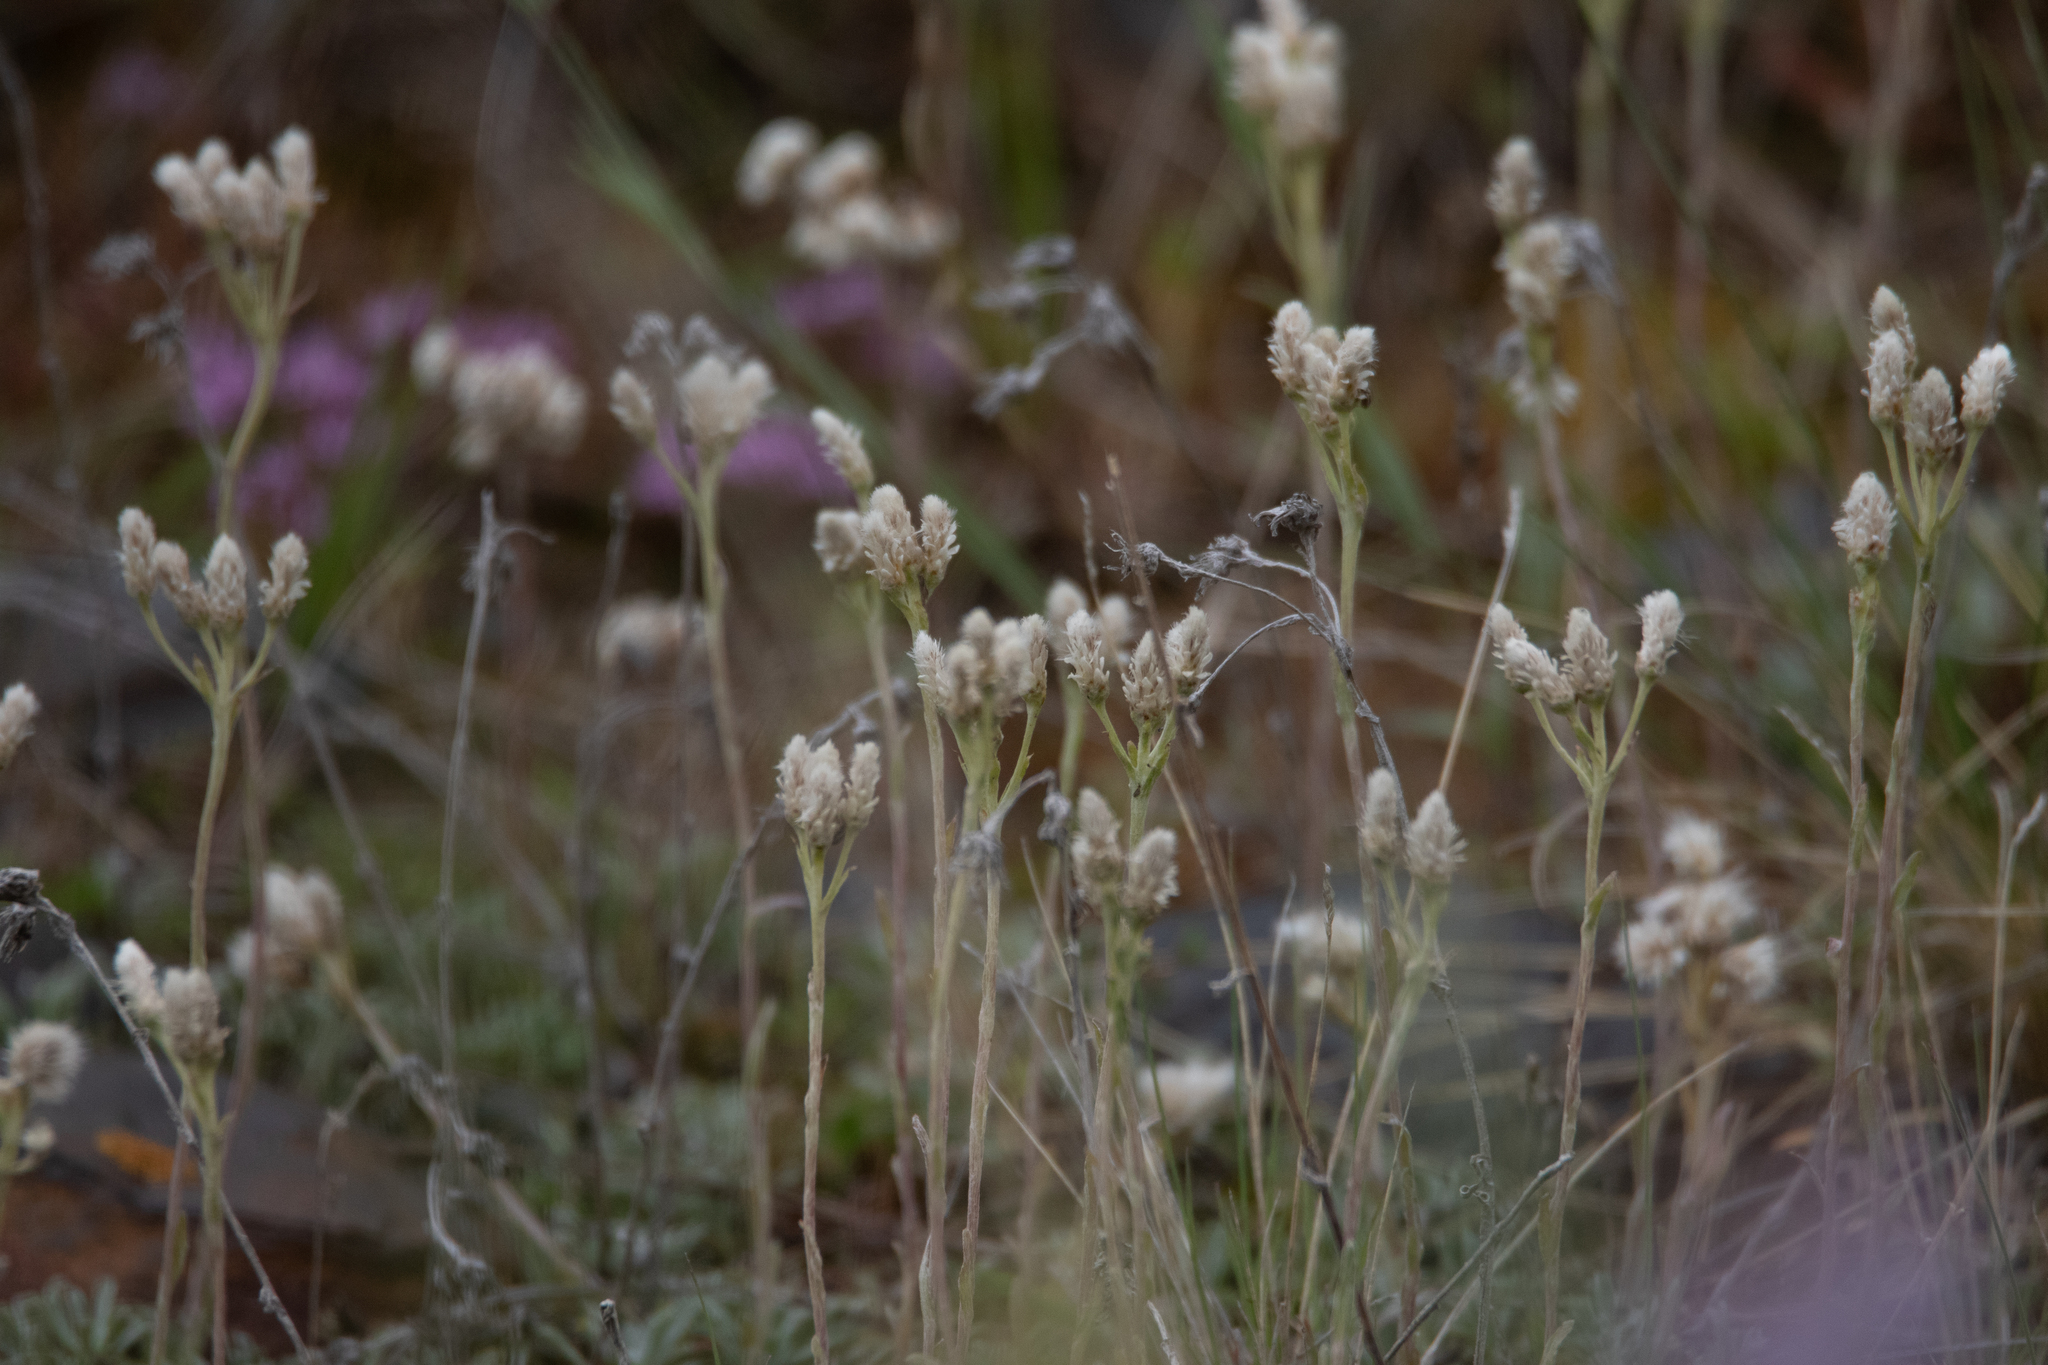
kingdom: Plantae
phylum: Tracheophyta
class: Magnoliopsida
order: Asterales
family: Asteraceae
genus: Antennaria
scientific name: Antennaria dioica
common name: Mountain everlasting
